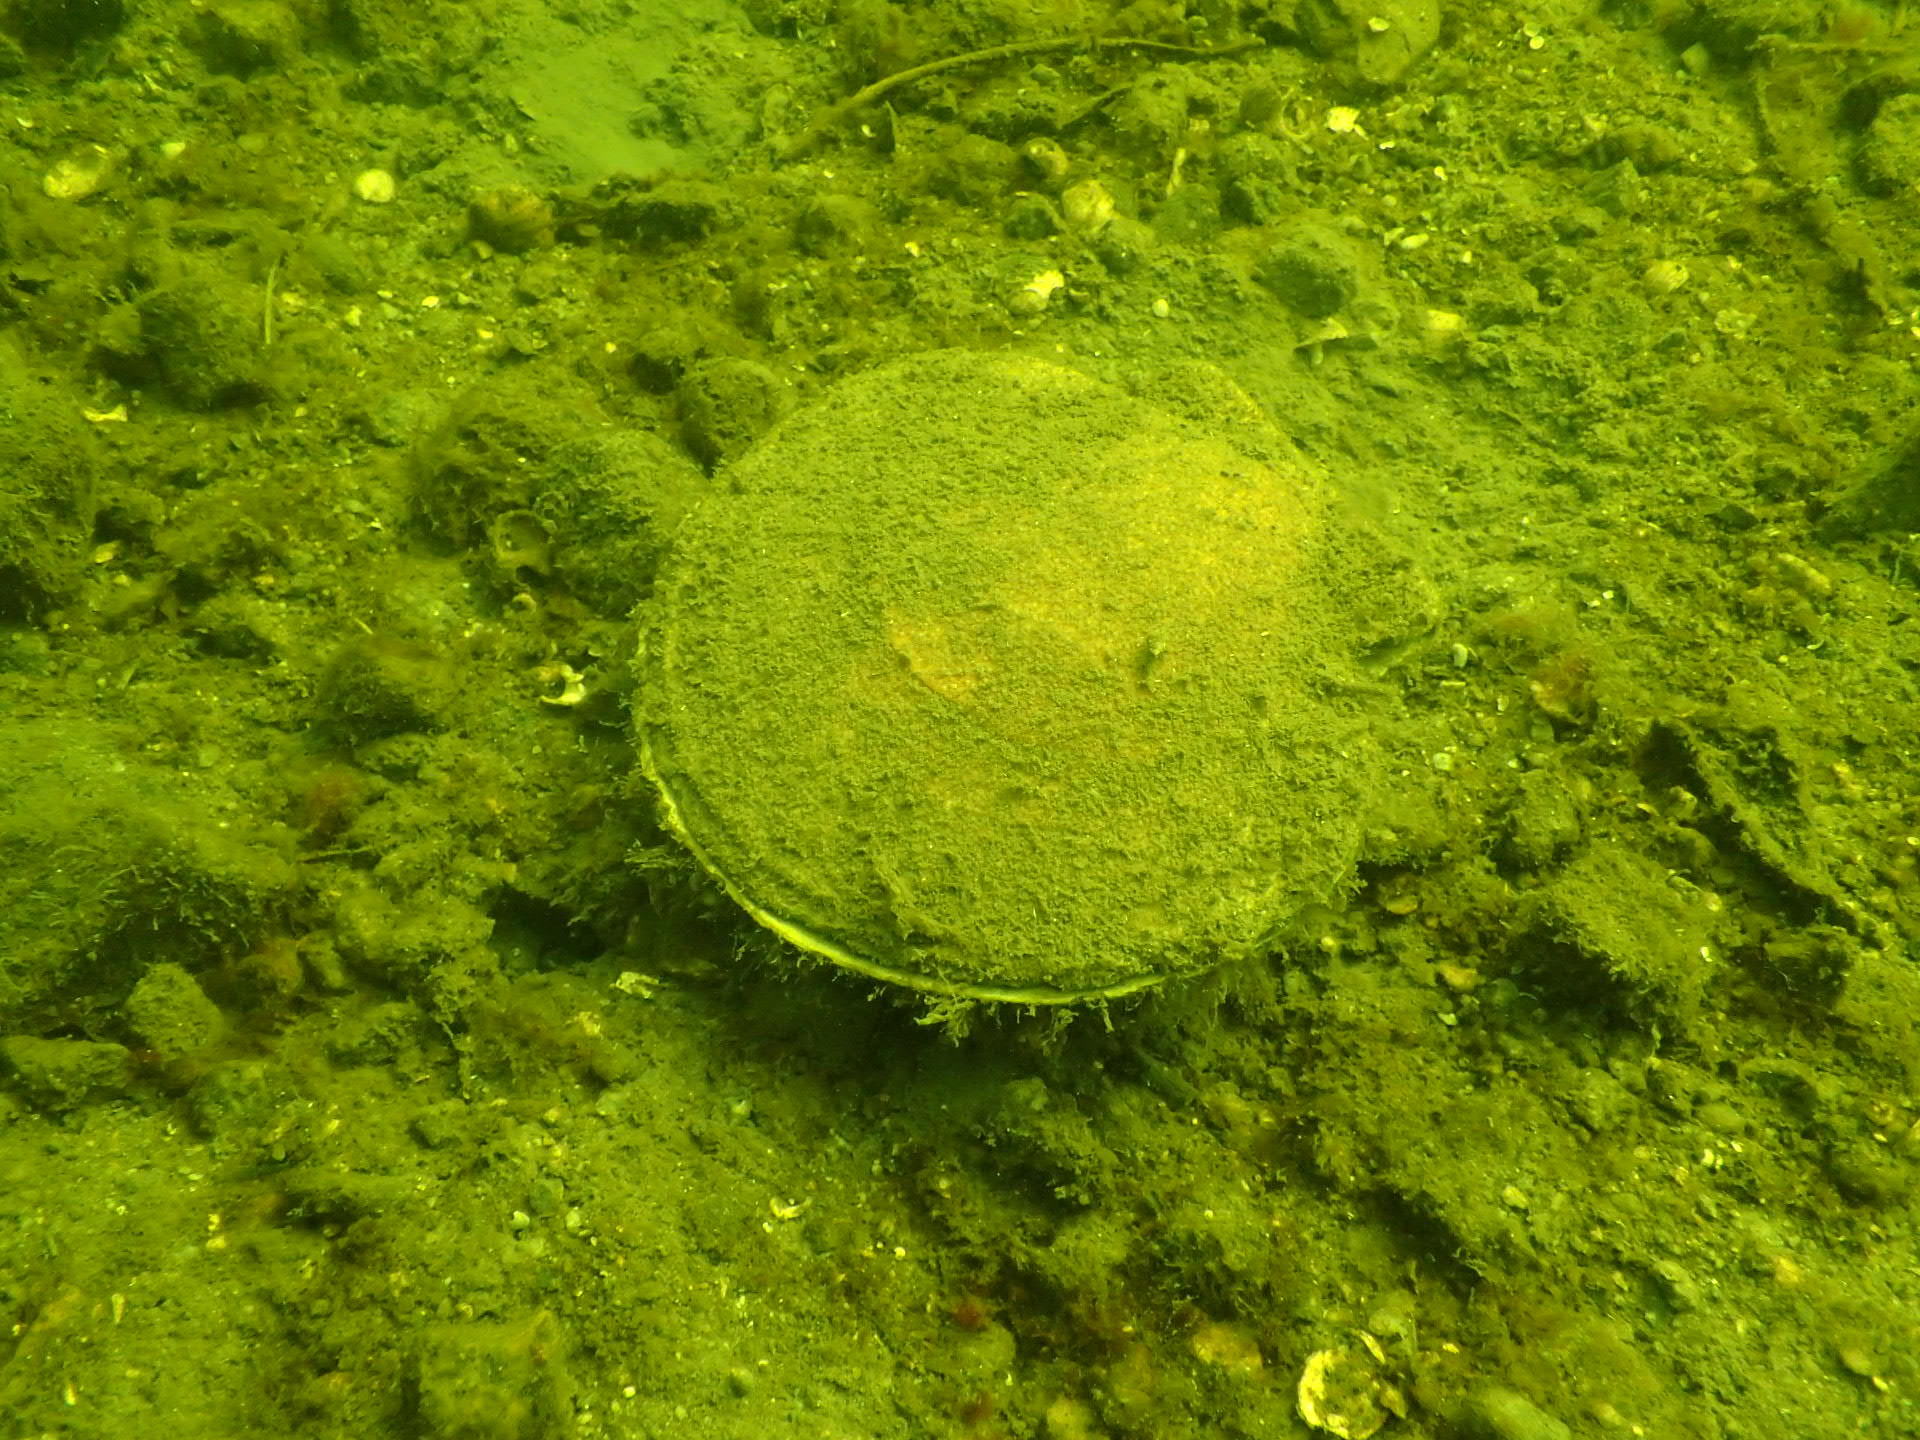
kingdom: Animalia
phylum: Mollusca
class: Bivalvia
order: Pectinida
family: Pectinidae
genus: Placopecten
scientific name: Placopecten magellanicus
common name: American sea scallop
